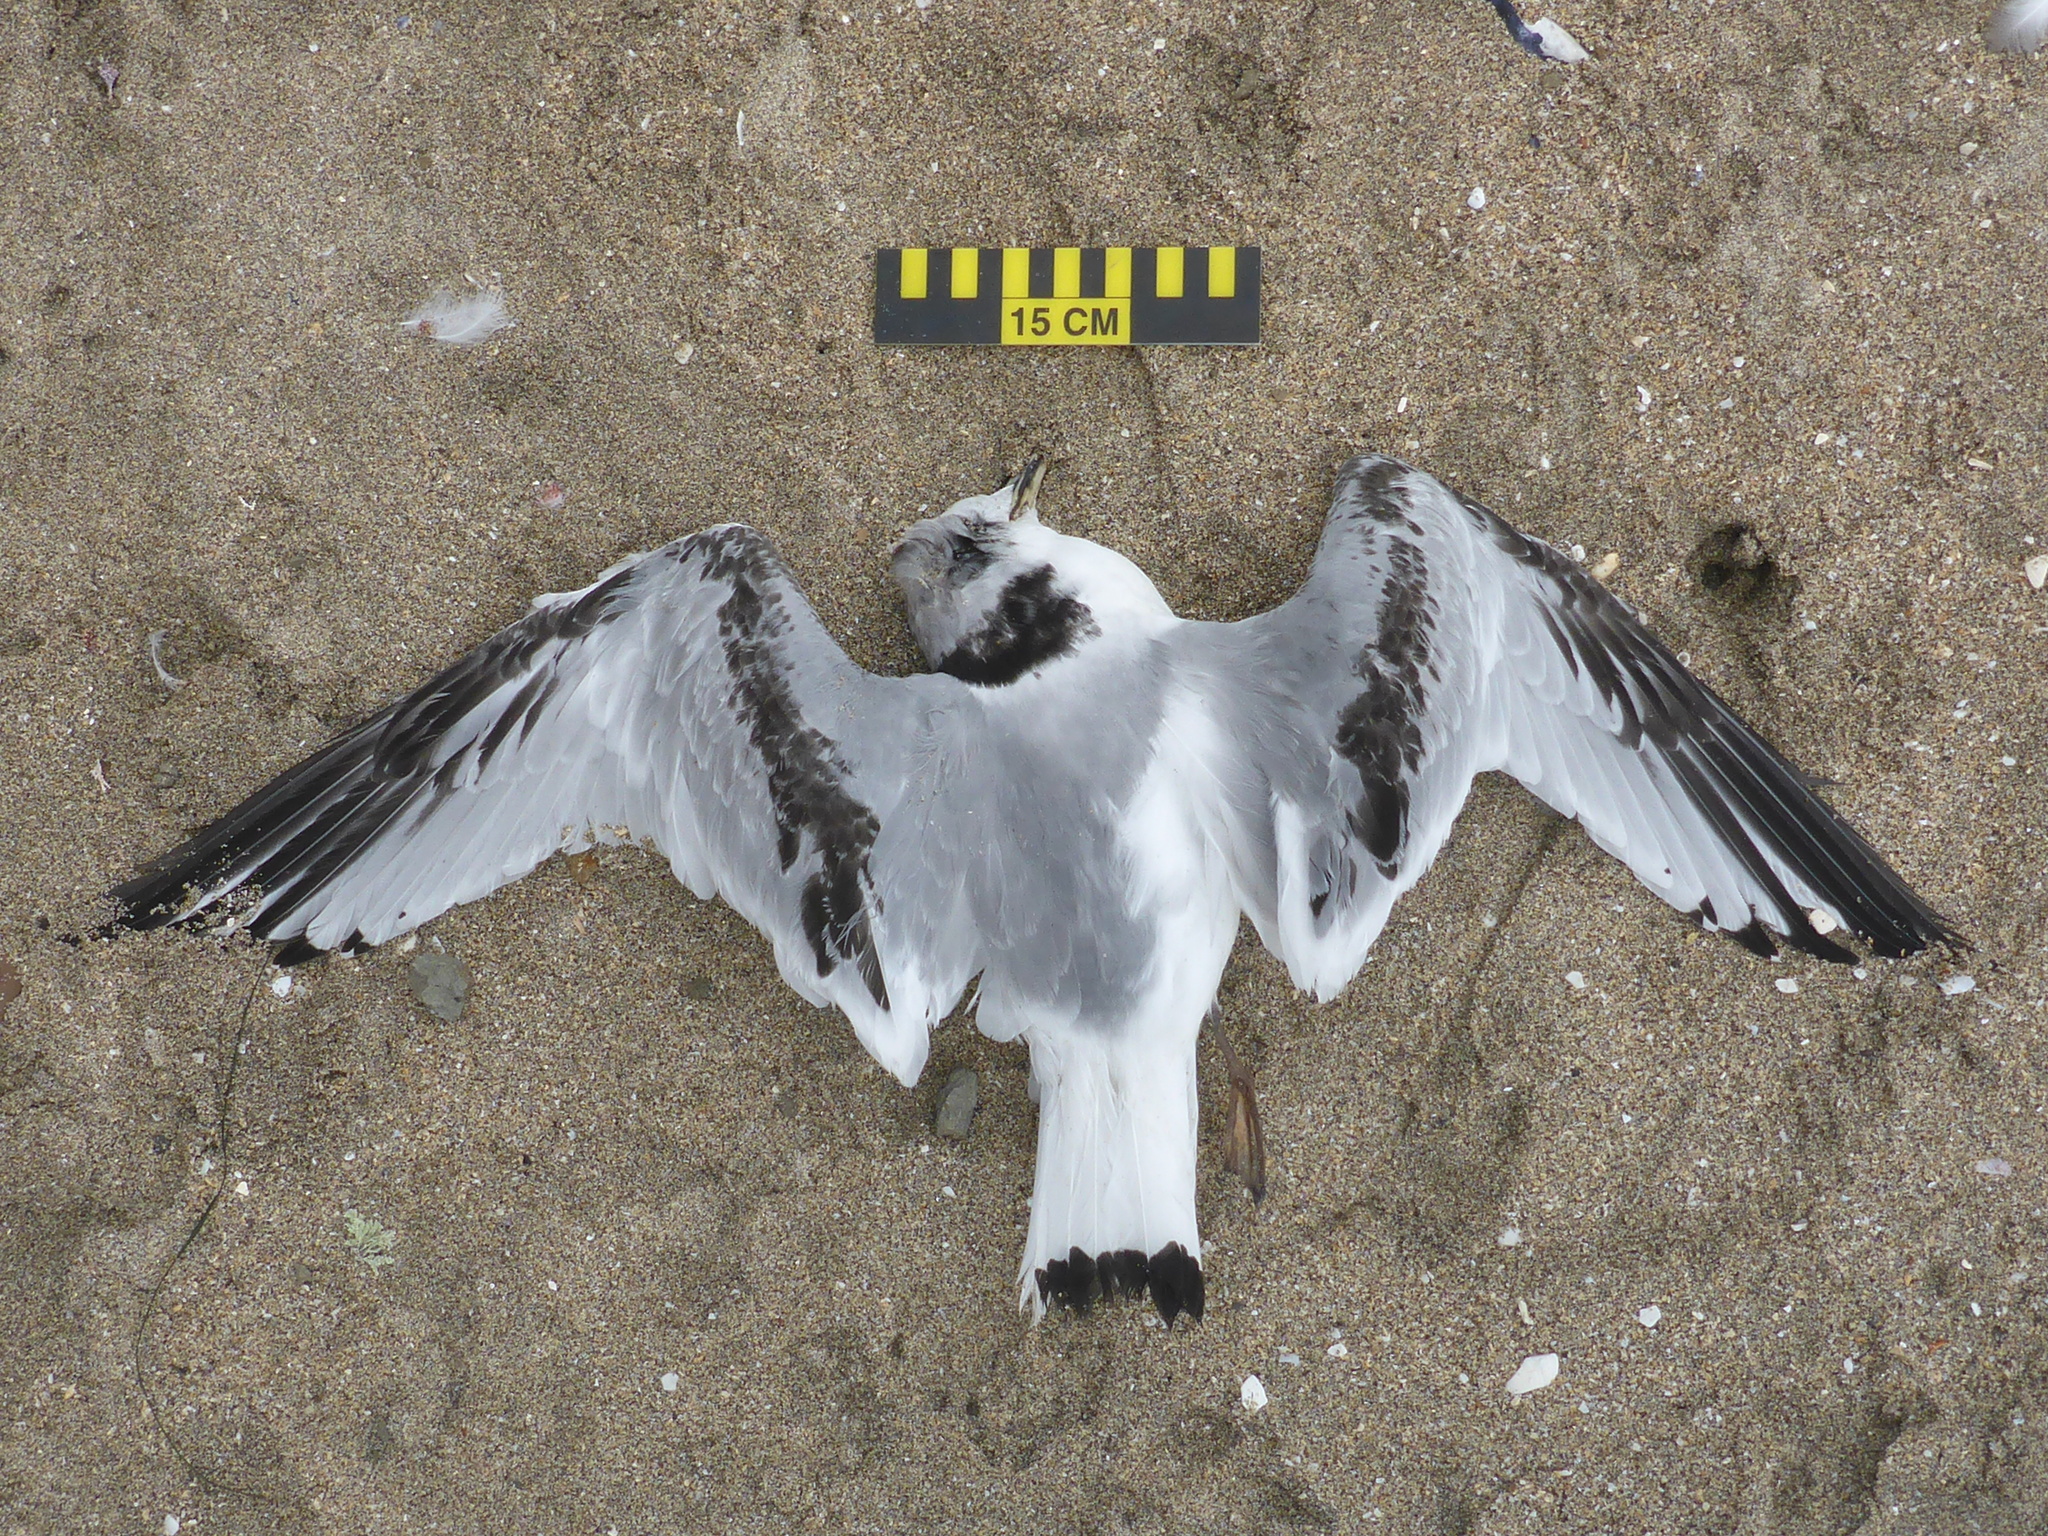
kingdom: Animalia
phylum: Chordata
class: Aves
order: Charadriiformes
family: Laridae
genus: Rissa
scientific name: Rissa tridactyla
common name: Black-legged kittiwake
